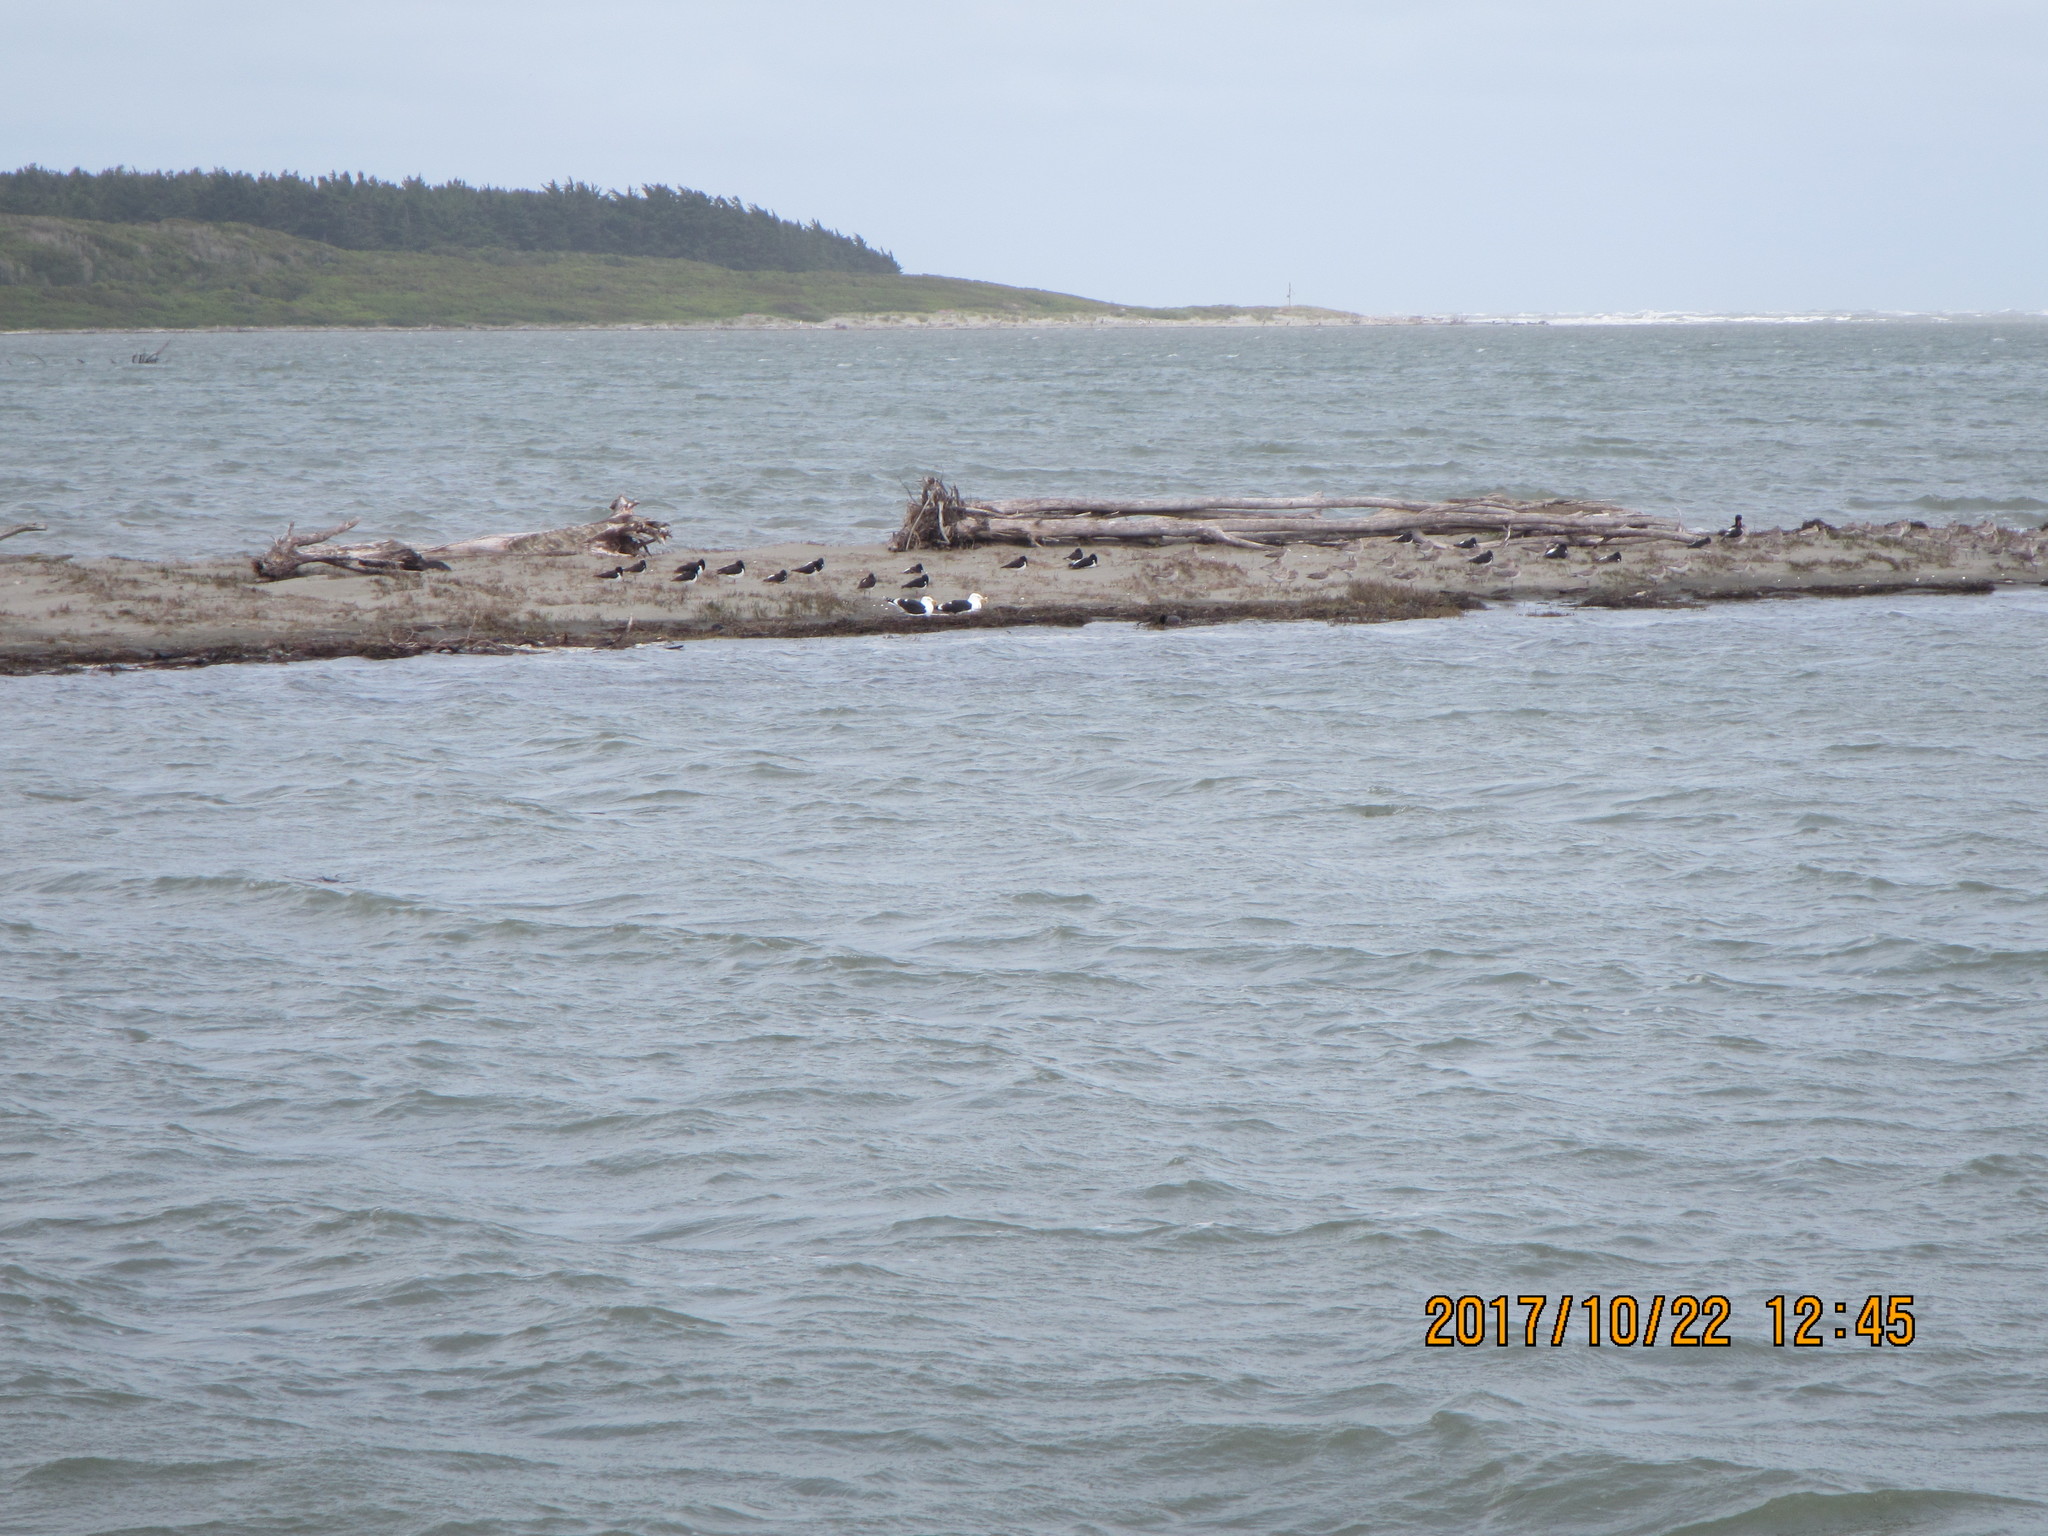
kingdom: Animalia
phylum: Chordata
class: Aves
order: Charadriiformes
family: Haematopodidae
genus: Haematopus
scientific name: Haematopus finschi
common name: South island oystercatcher
